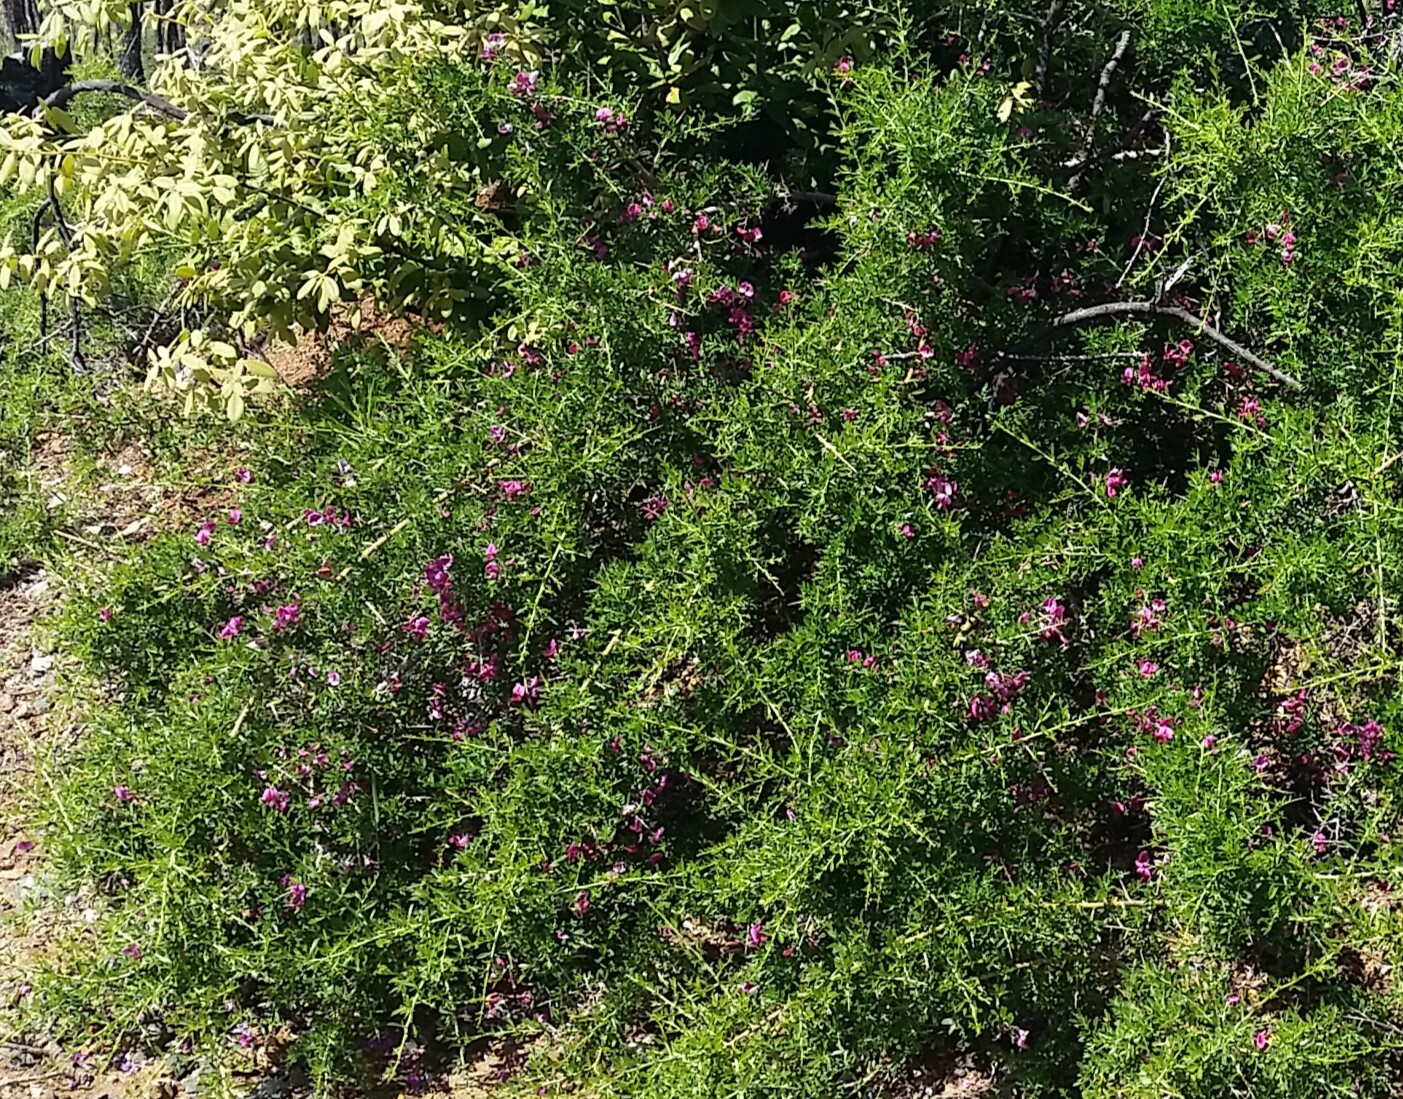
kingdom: Plantae
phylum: Tracheophyta
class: Magnoliopsida
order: Fabales
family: Fabaceae
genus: Pickeringia
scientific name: Pickeringia montana
